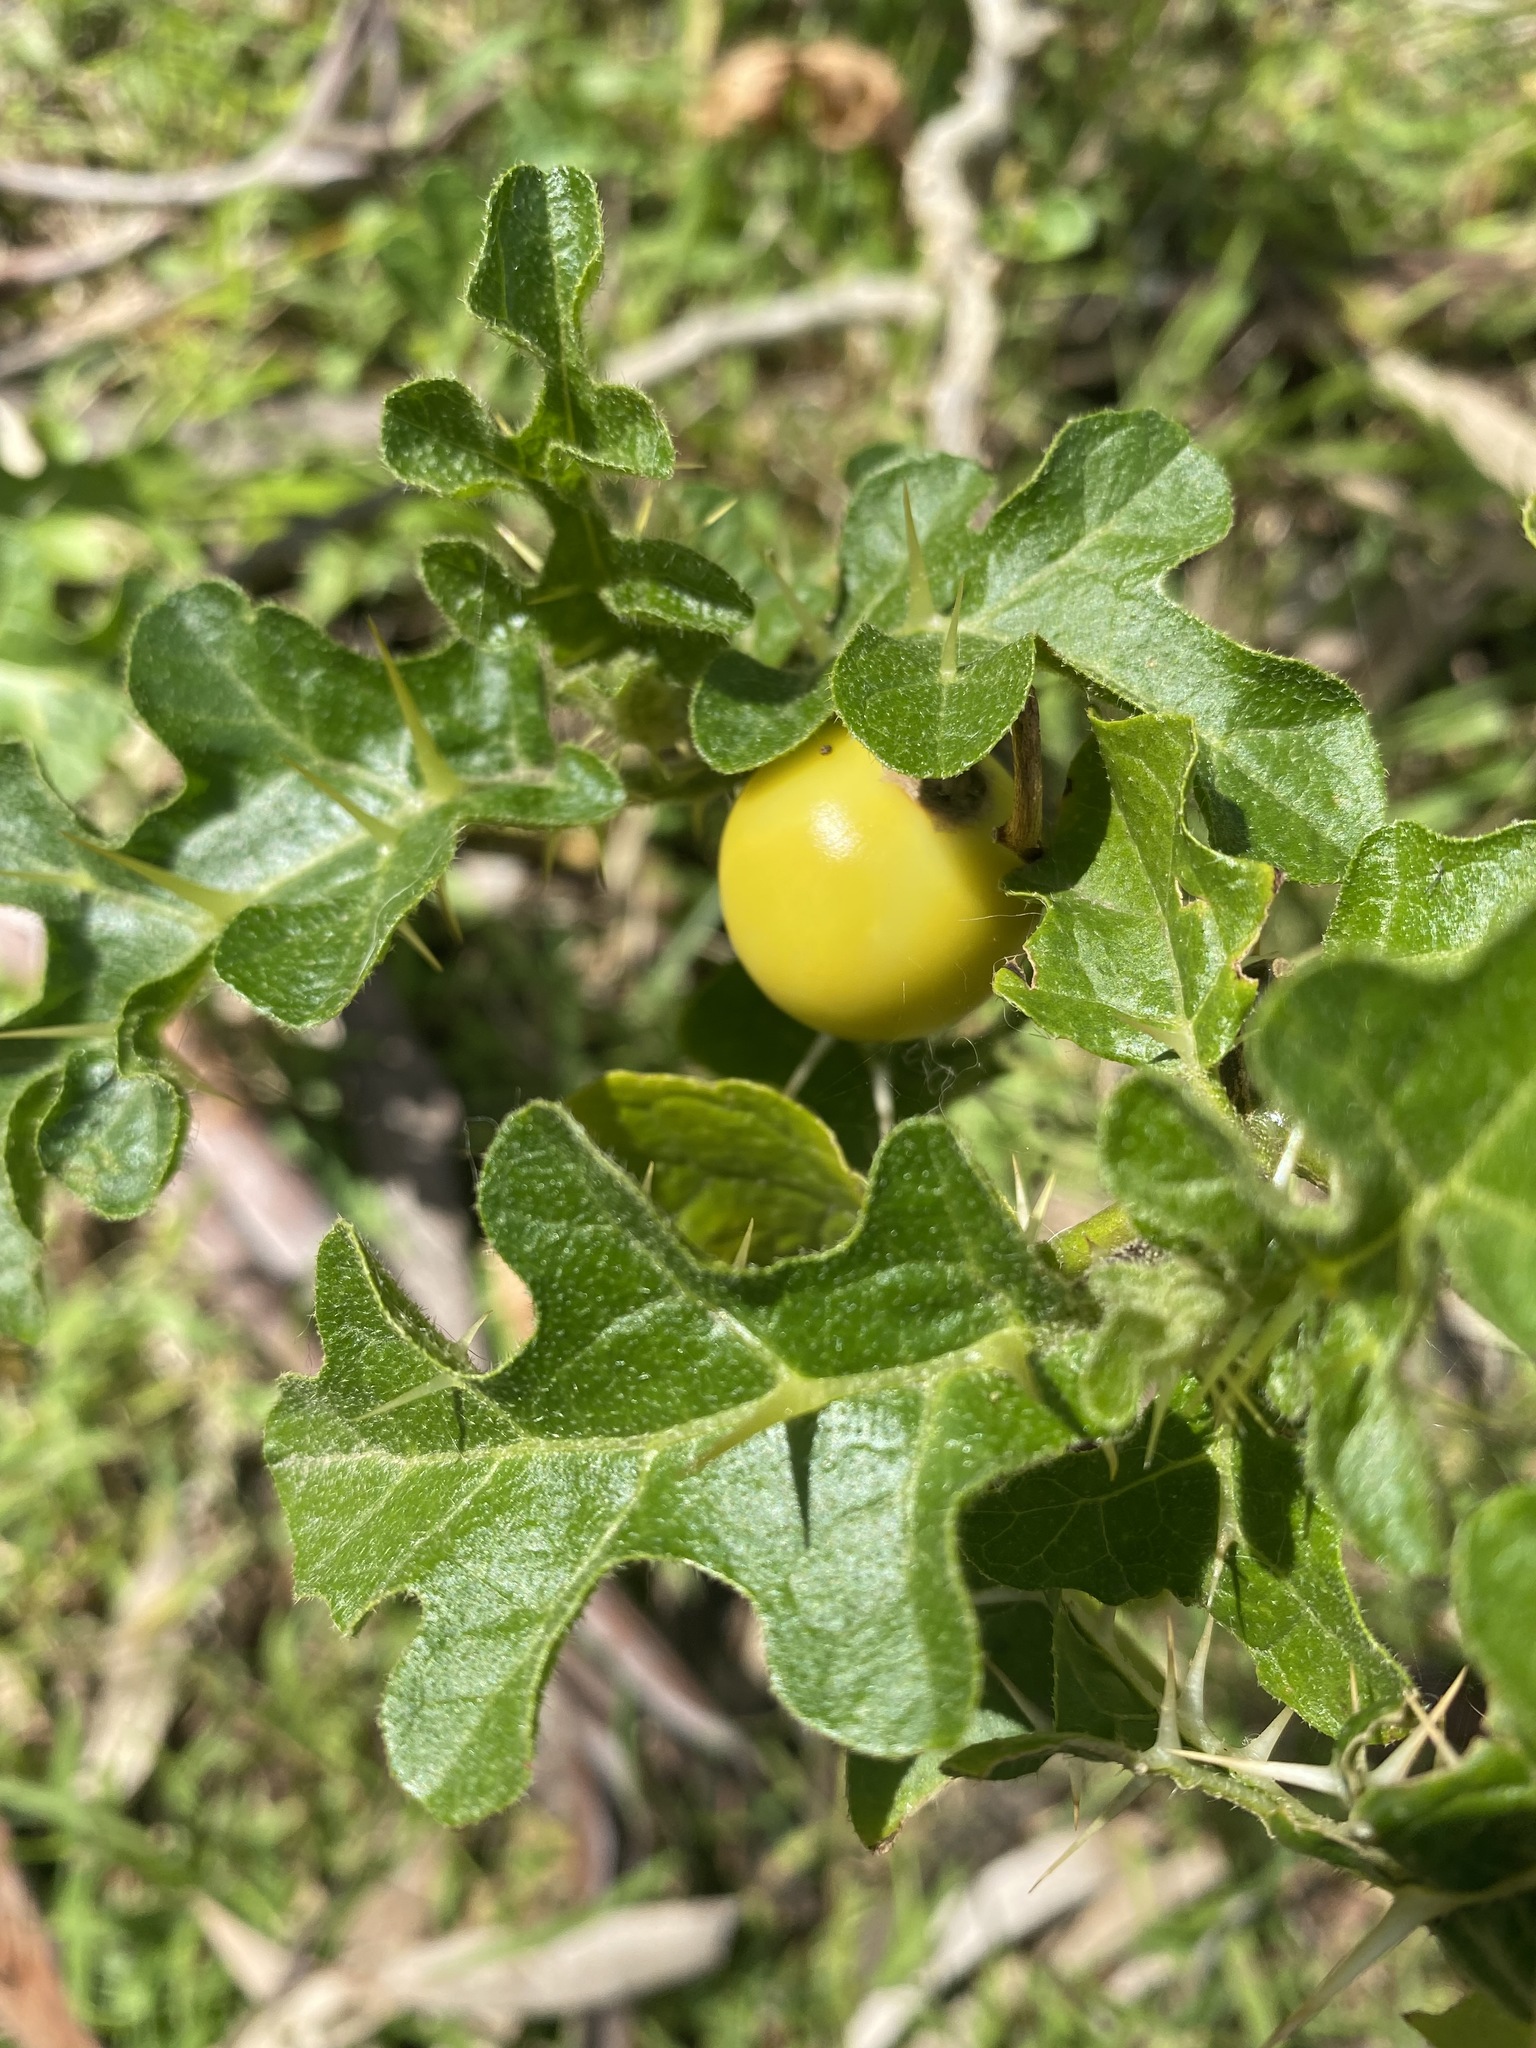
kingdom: Plantae
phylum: Tracheophyta
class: Magnoliopsida
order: Solanales
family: Solanaceae
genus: Solanum
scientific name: Solanum linnaeanum
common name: Nightshade
